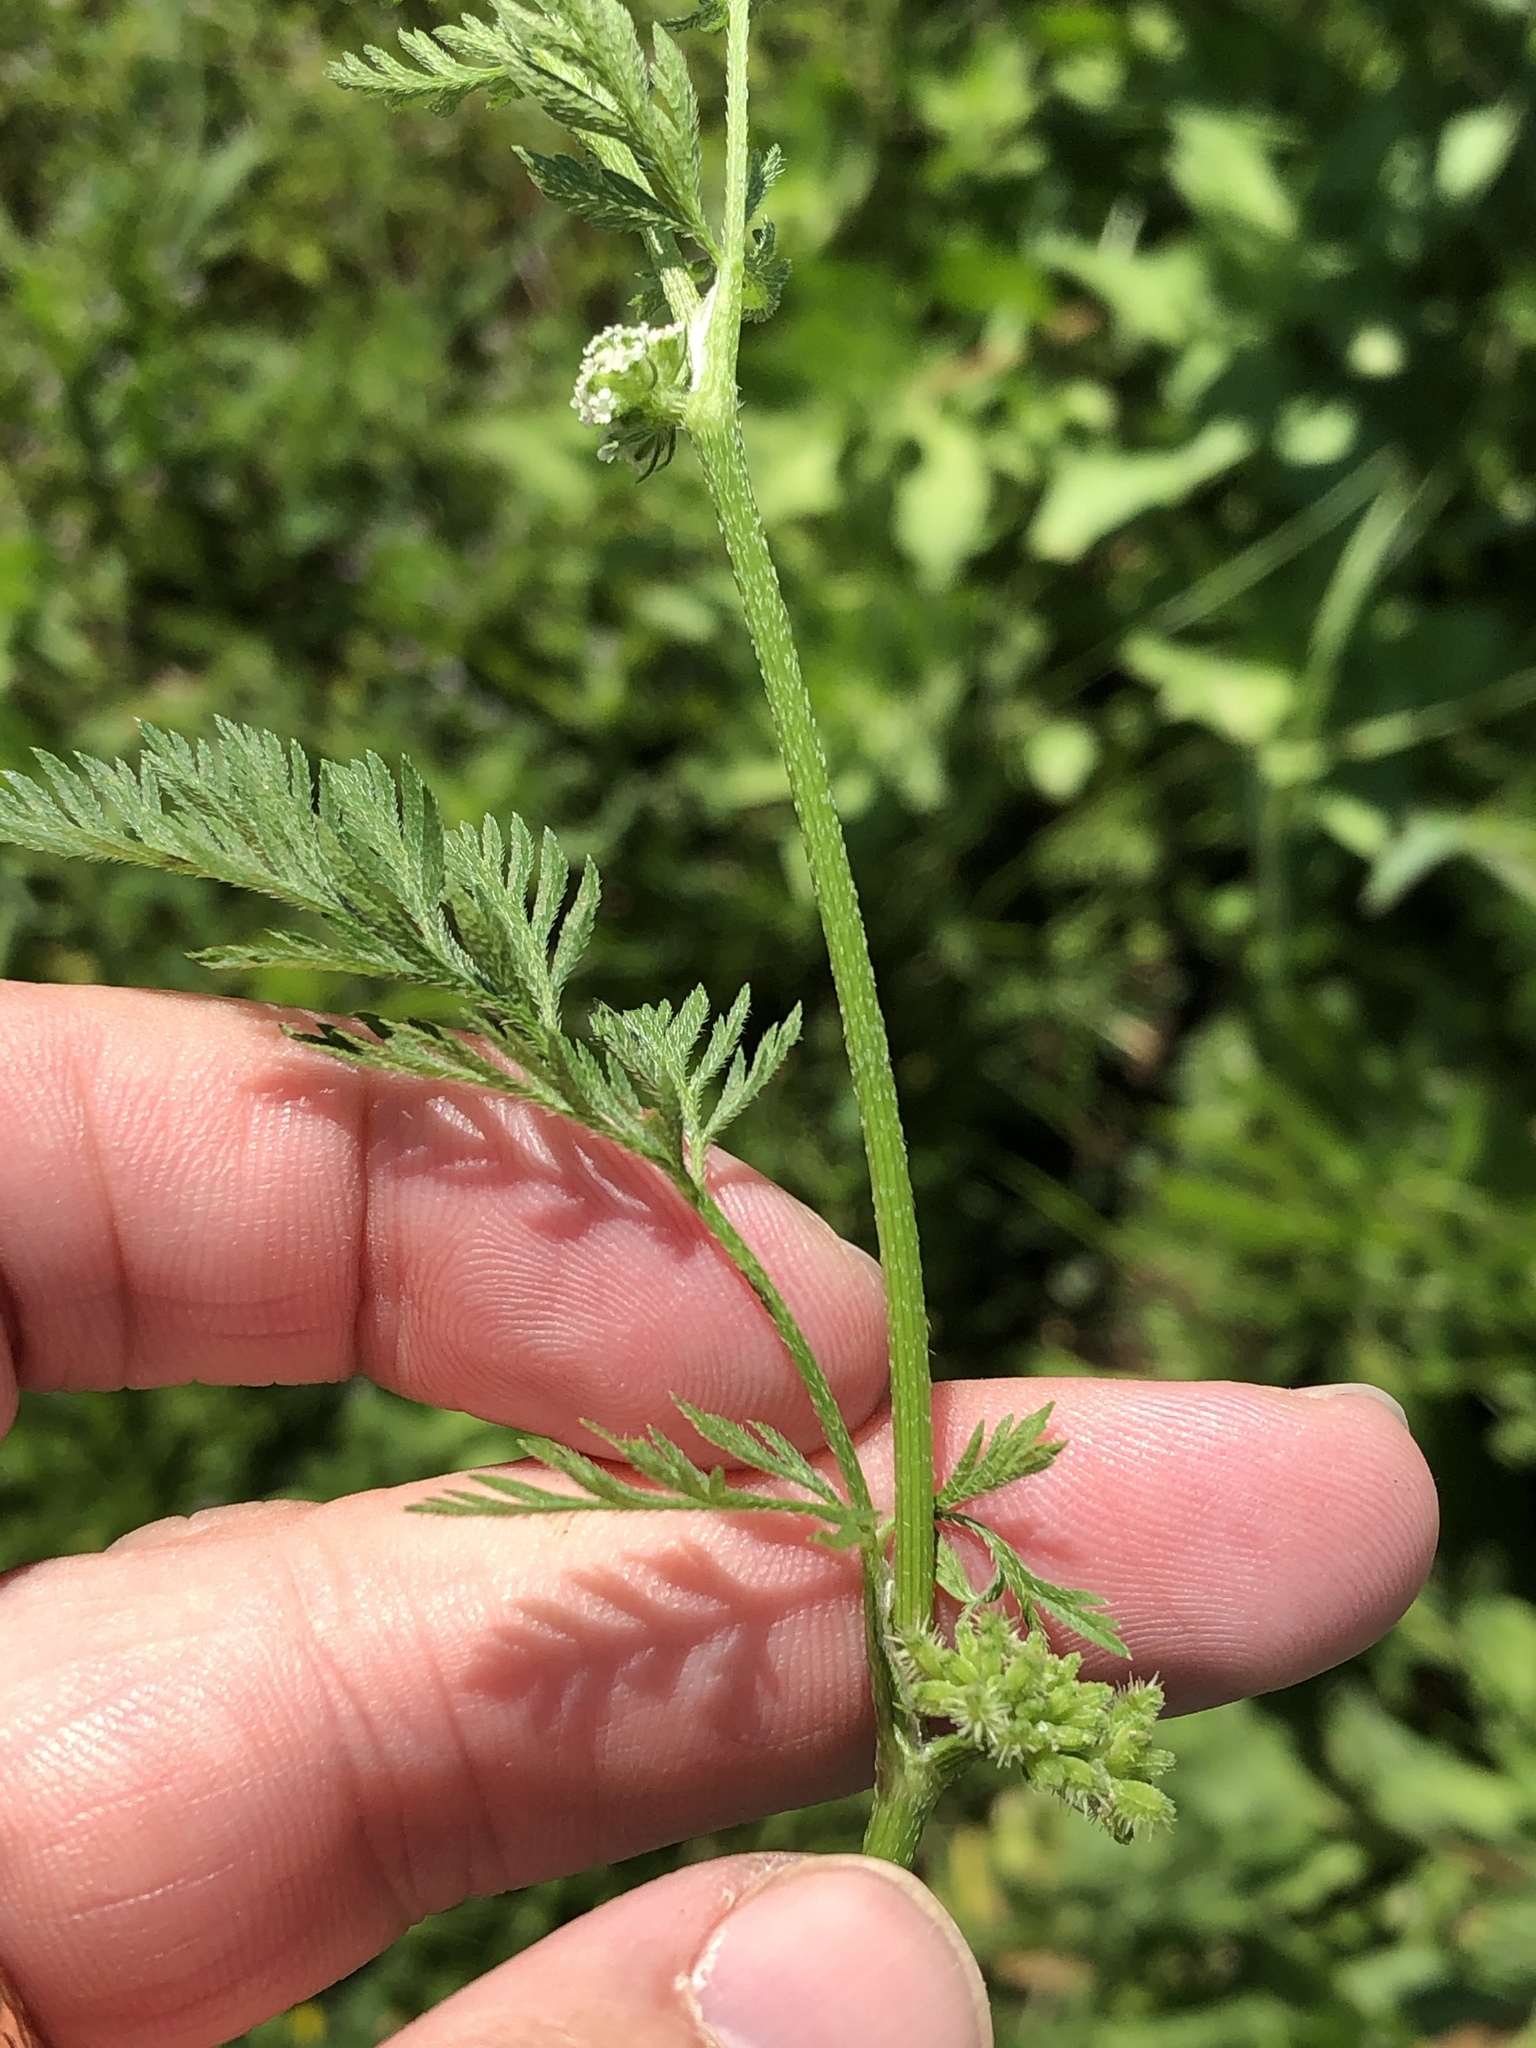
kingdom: Plantae
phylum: Tracheophyta
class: Magnoliopsida
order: Apiales
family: Apiaceae
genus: Torilis
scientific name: Torilis nodosa
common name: Knotted hedge-parsley
